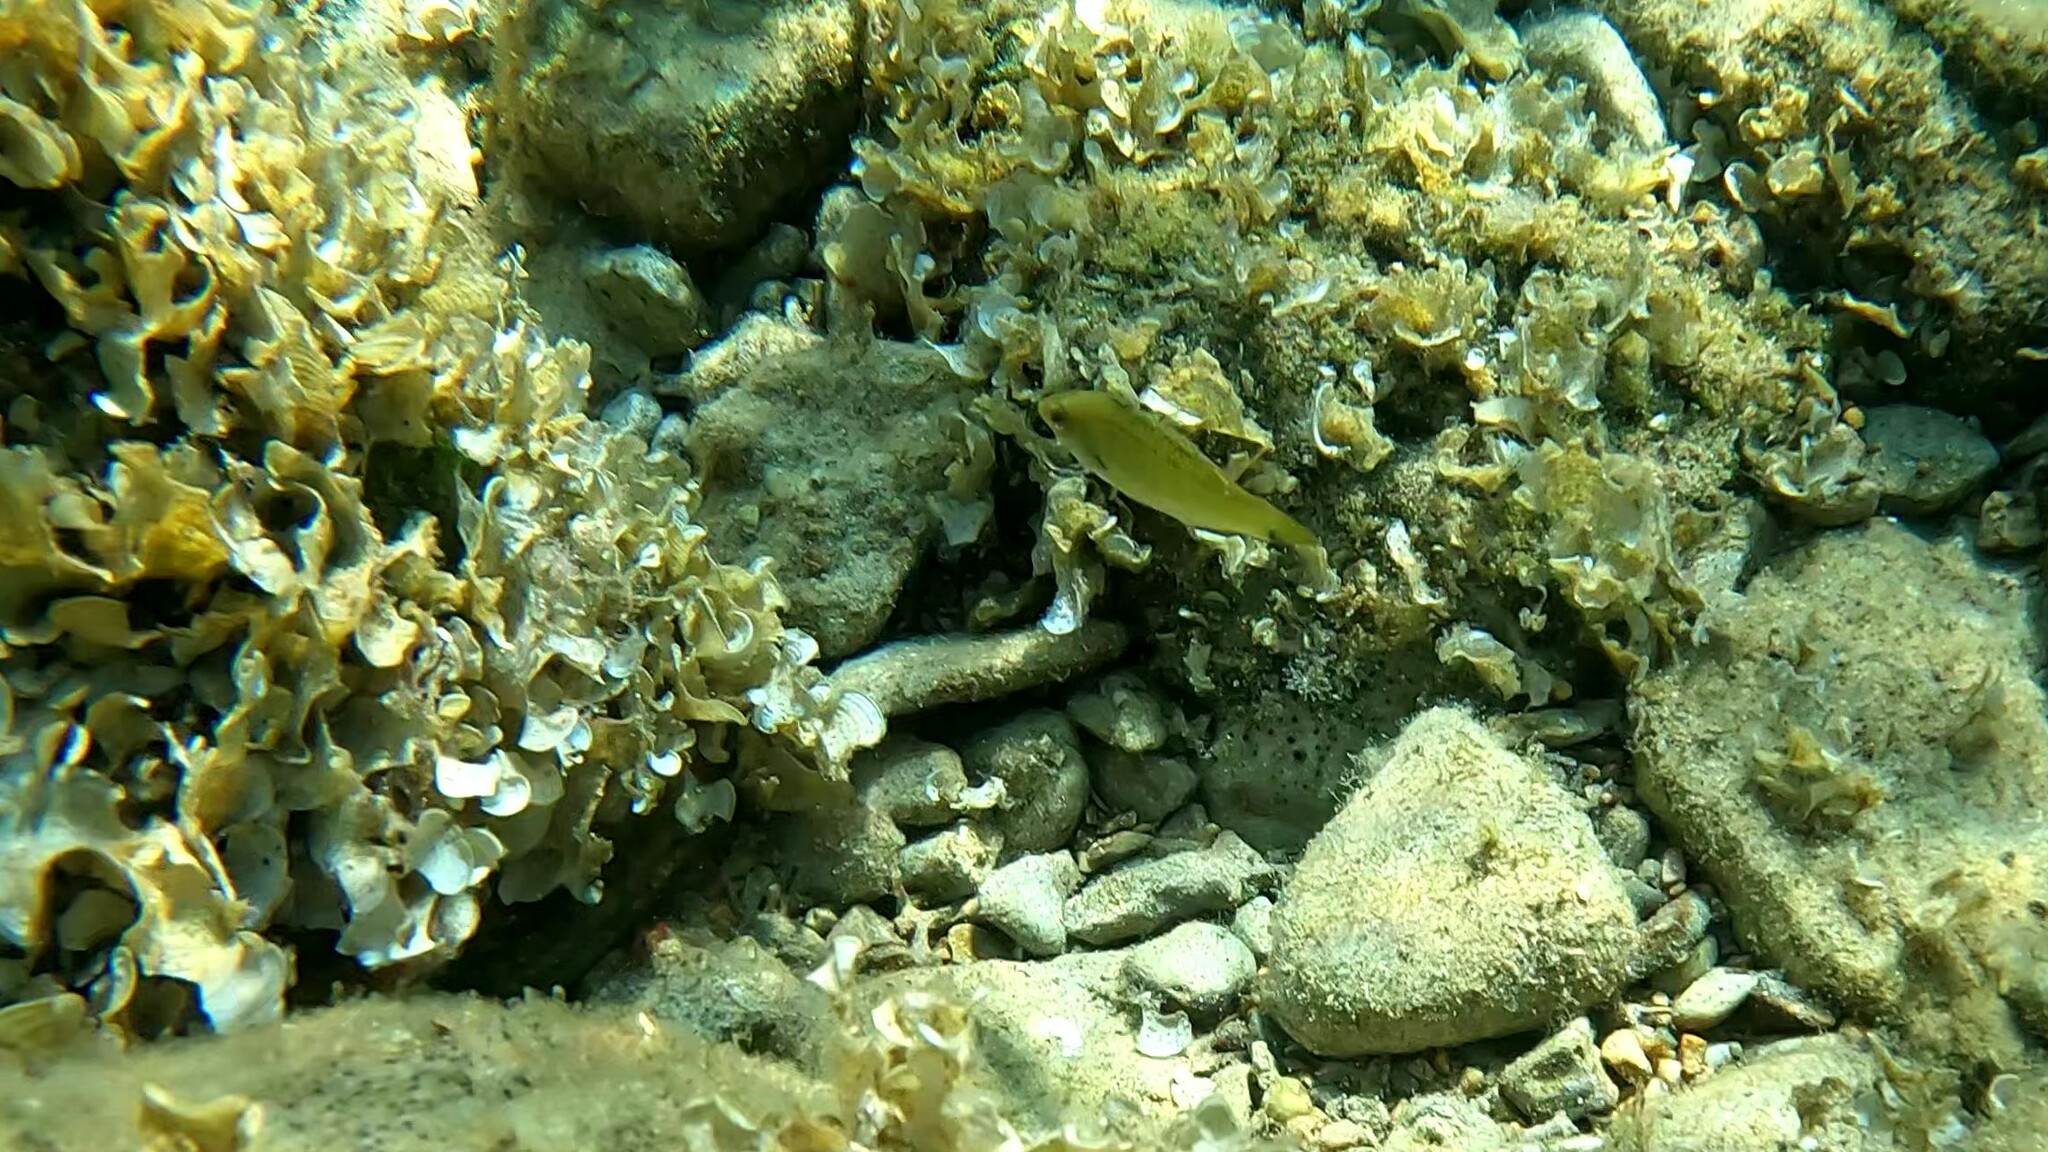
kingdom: Animalia
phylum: Chordata
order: Perciformes
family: Labridae
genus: Symphodus
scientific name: Symphodus cinereus
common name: Grey wrasse
